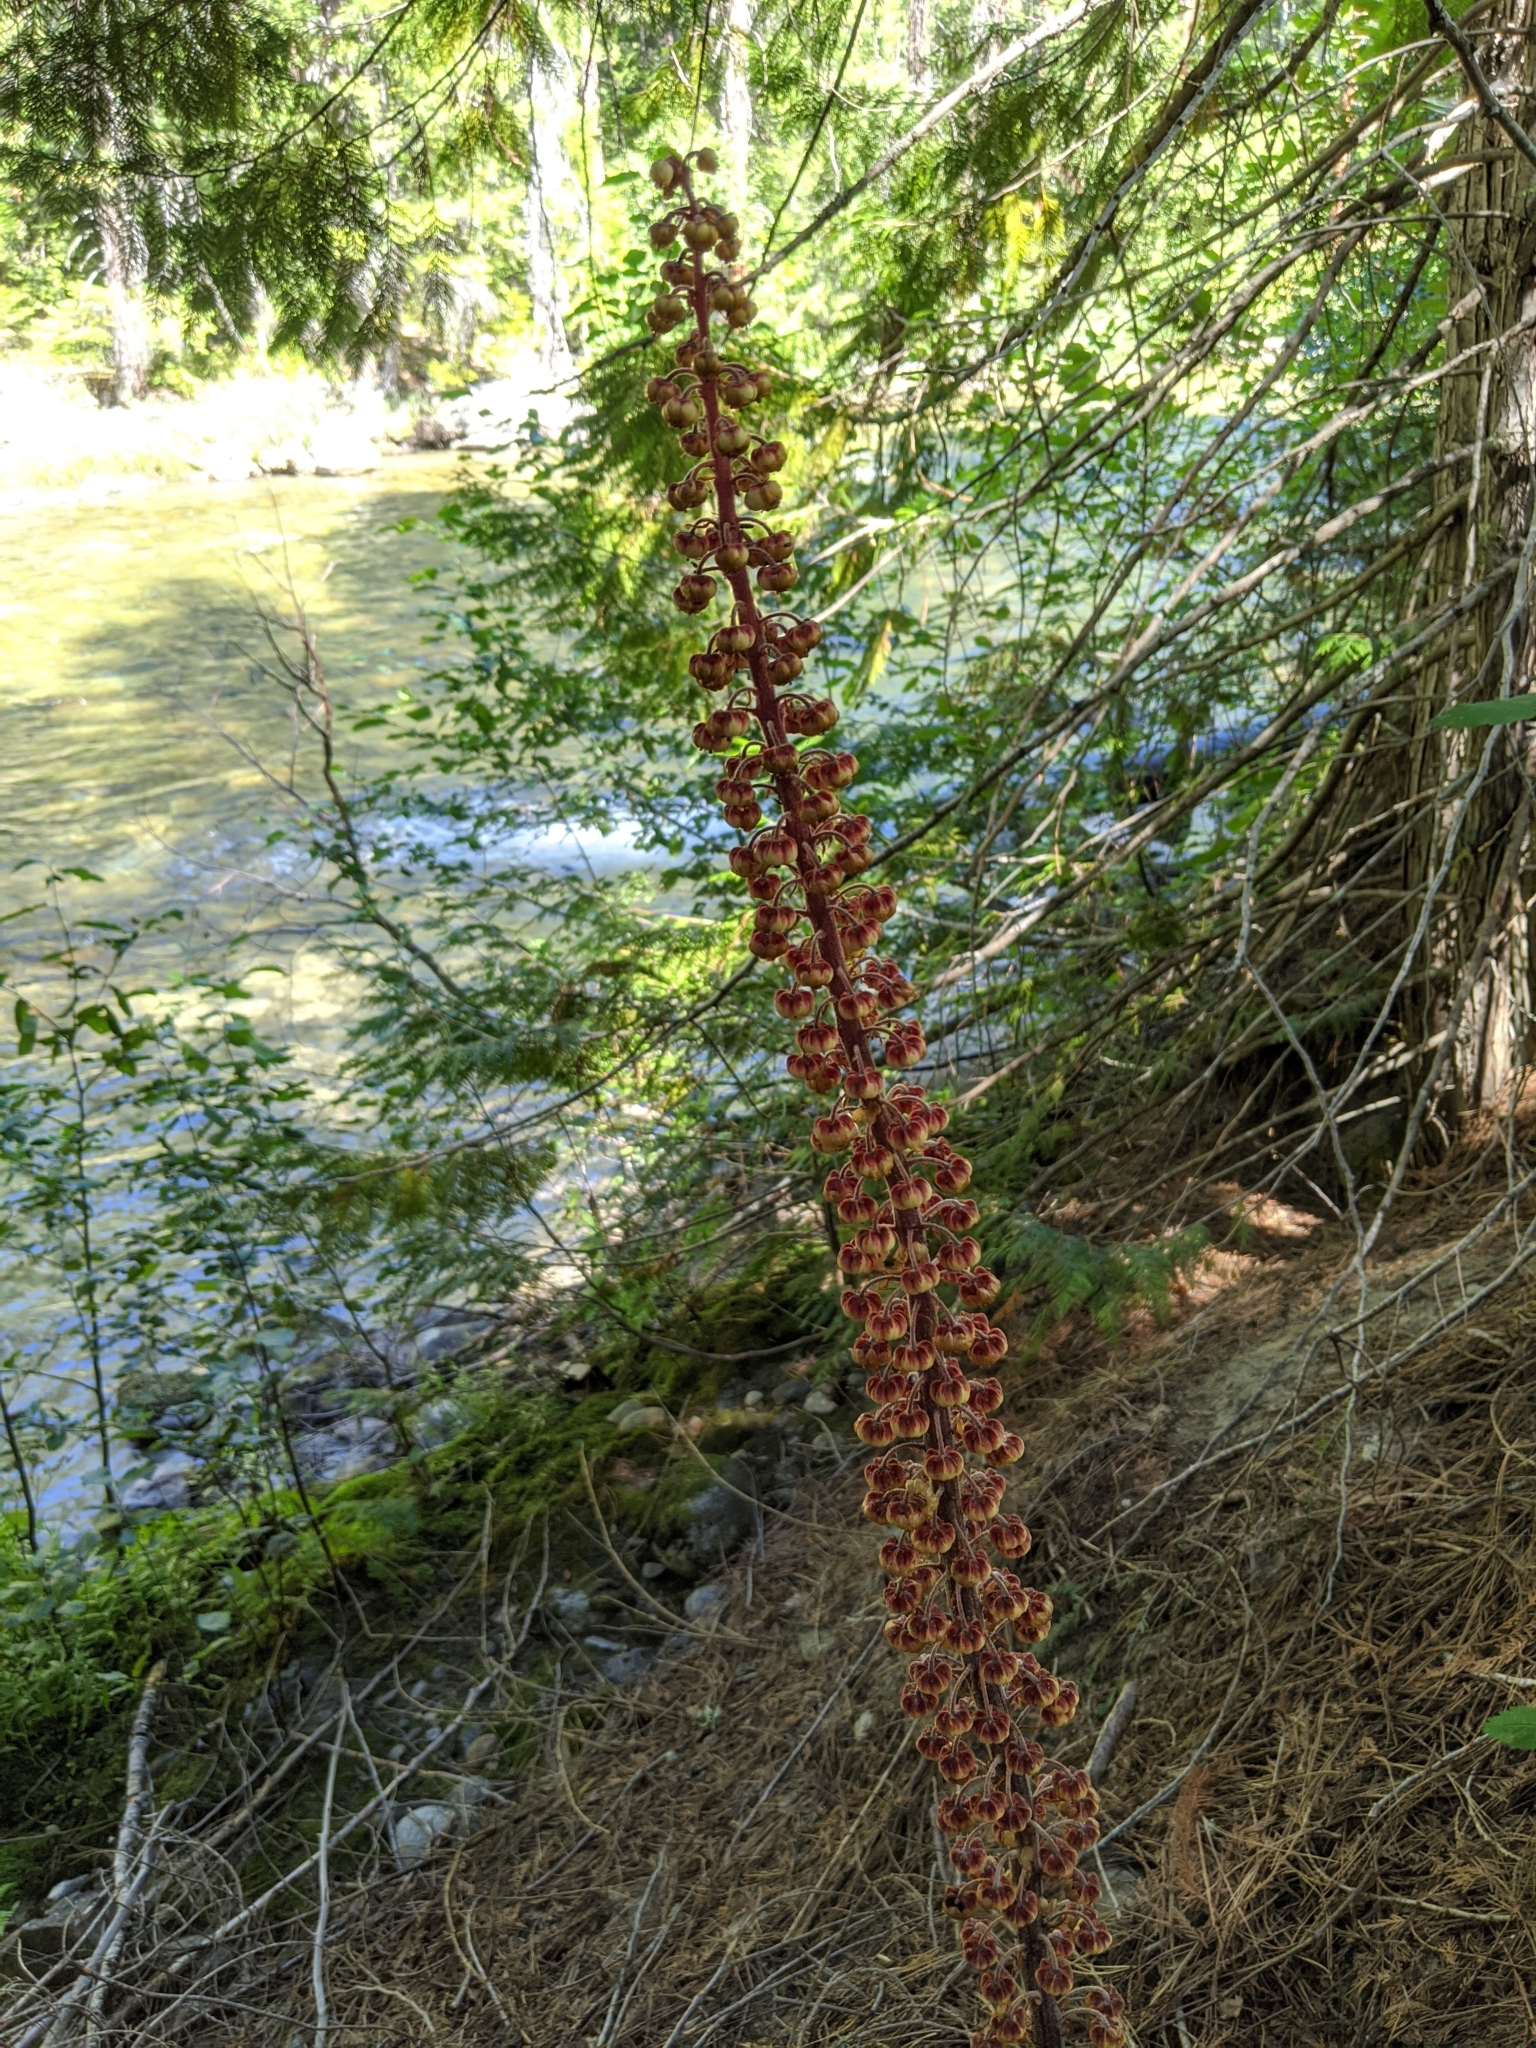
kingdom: Plantae
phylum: Tracheophyta
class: Magnoliopsida
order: Ericales
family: Ericaceae
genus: Pterospora
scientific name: Pterospora andromedea
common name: Giant bird's-nest
